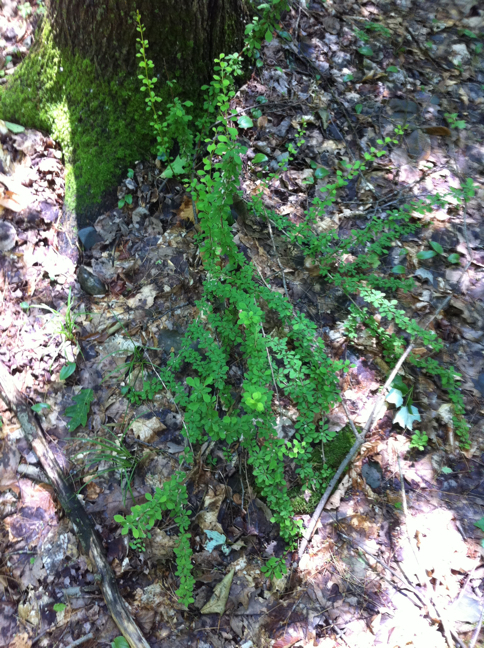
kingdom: Plantae
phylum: Tracheophyta
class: Magnoliopsida
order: Ranunculales
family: Berberidaceae
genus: Berberis
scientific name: Berberis thunbergii
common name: Japanese barberry
